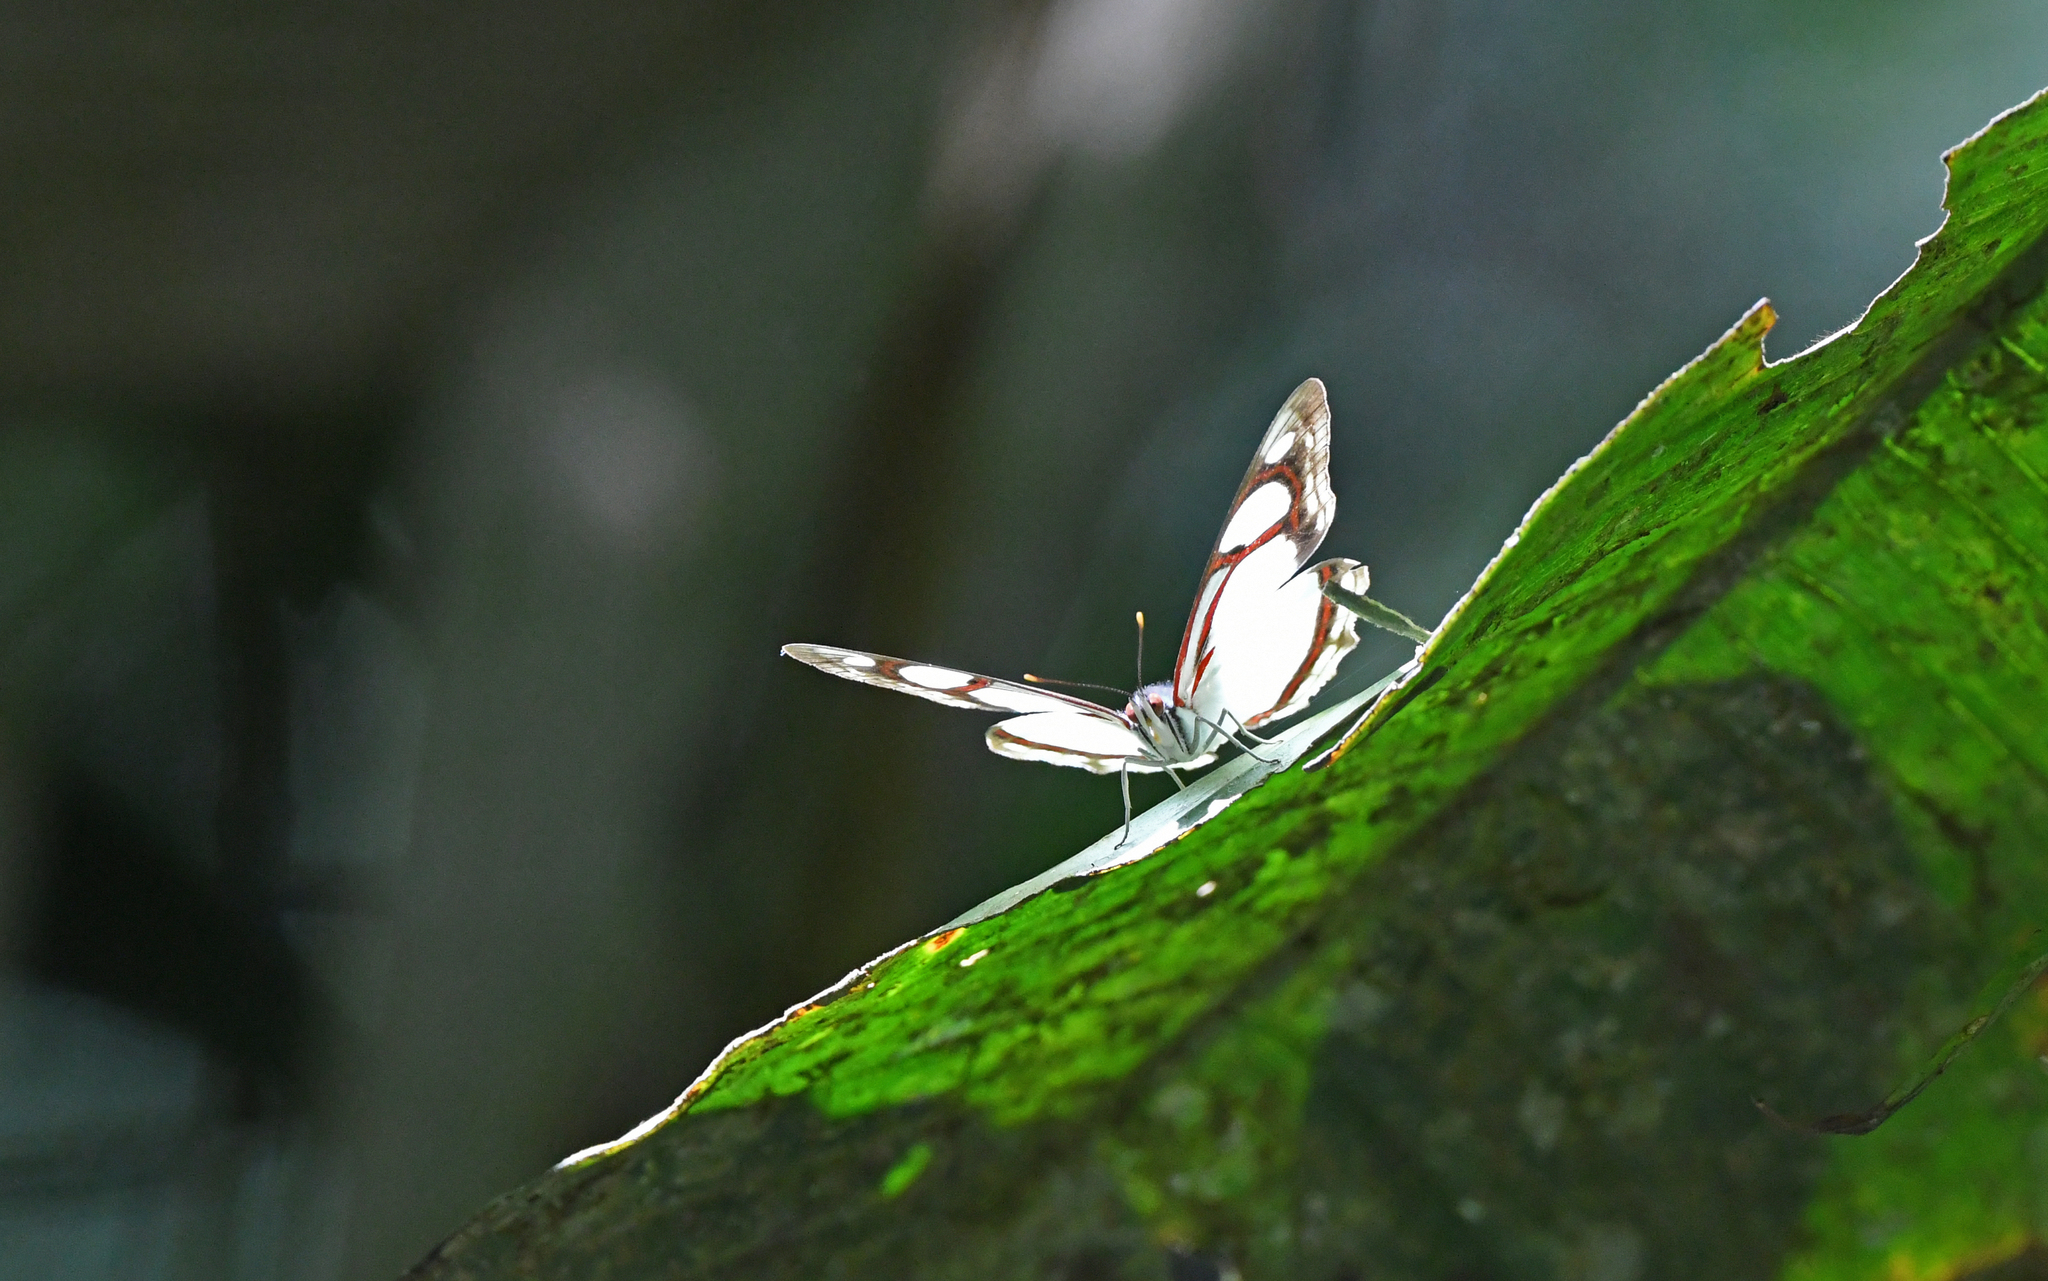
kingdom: Animalia
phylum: Arthropoda
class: Insecta
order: Lepidoptera
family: Nymphalidae
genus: Pyrrhogyra
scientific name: Pyrrhogyra edocla
